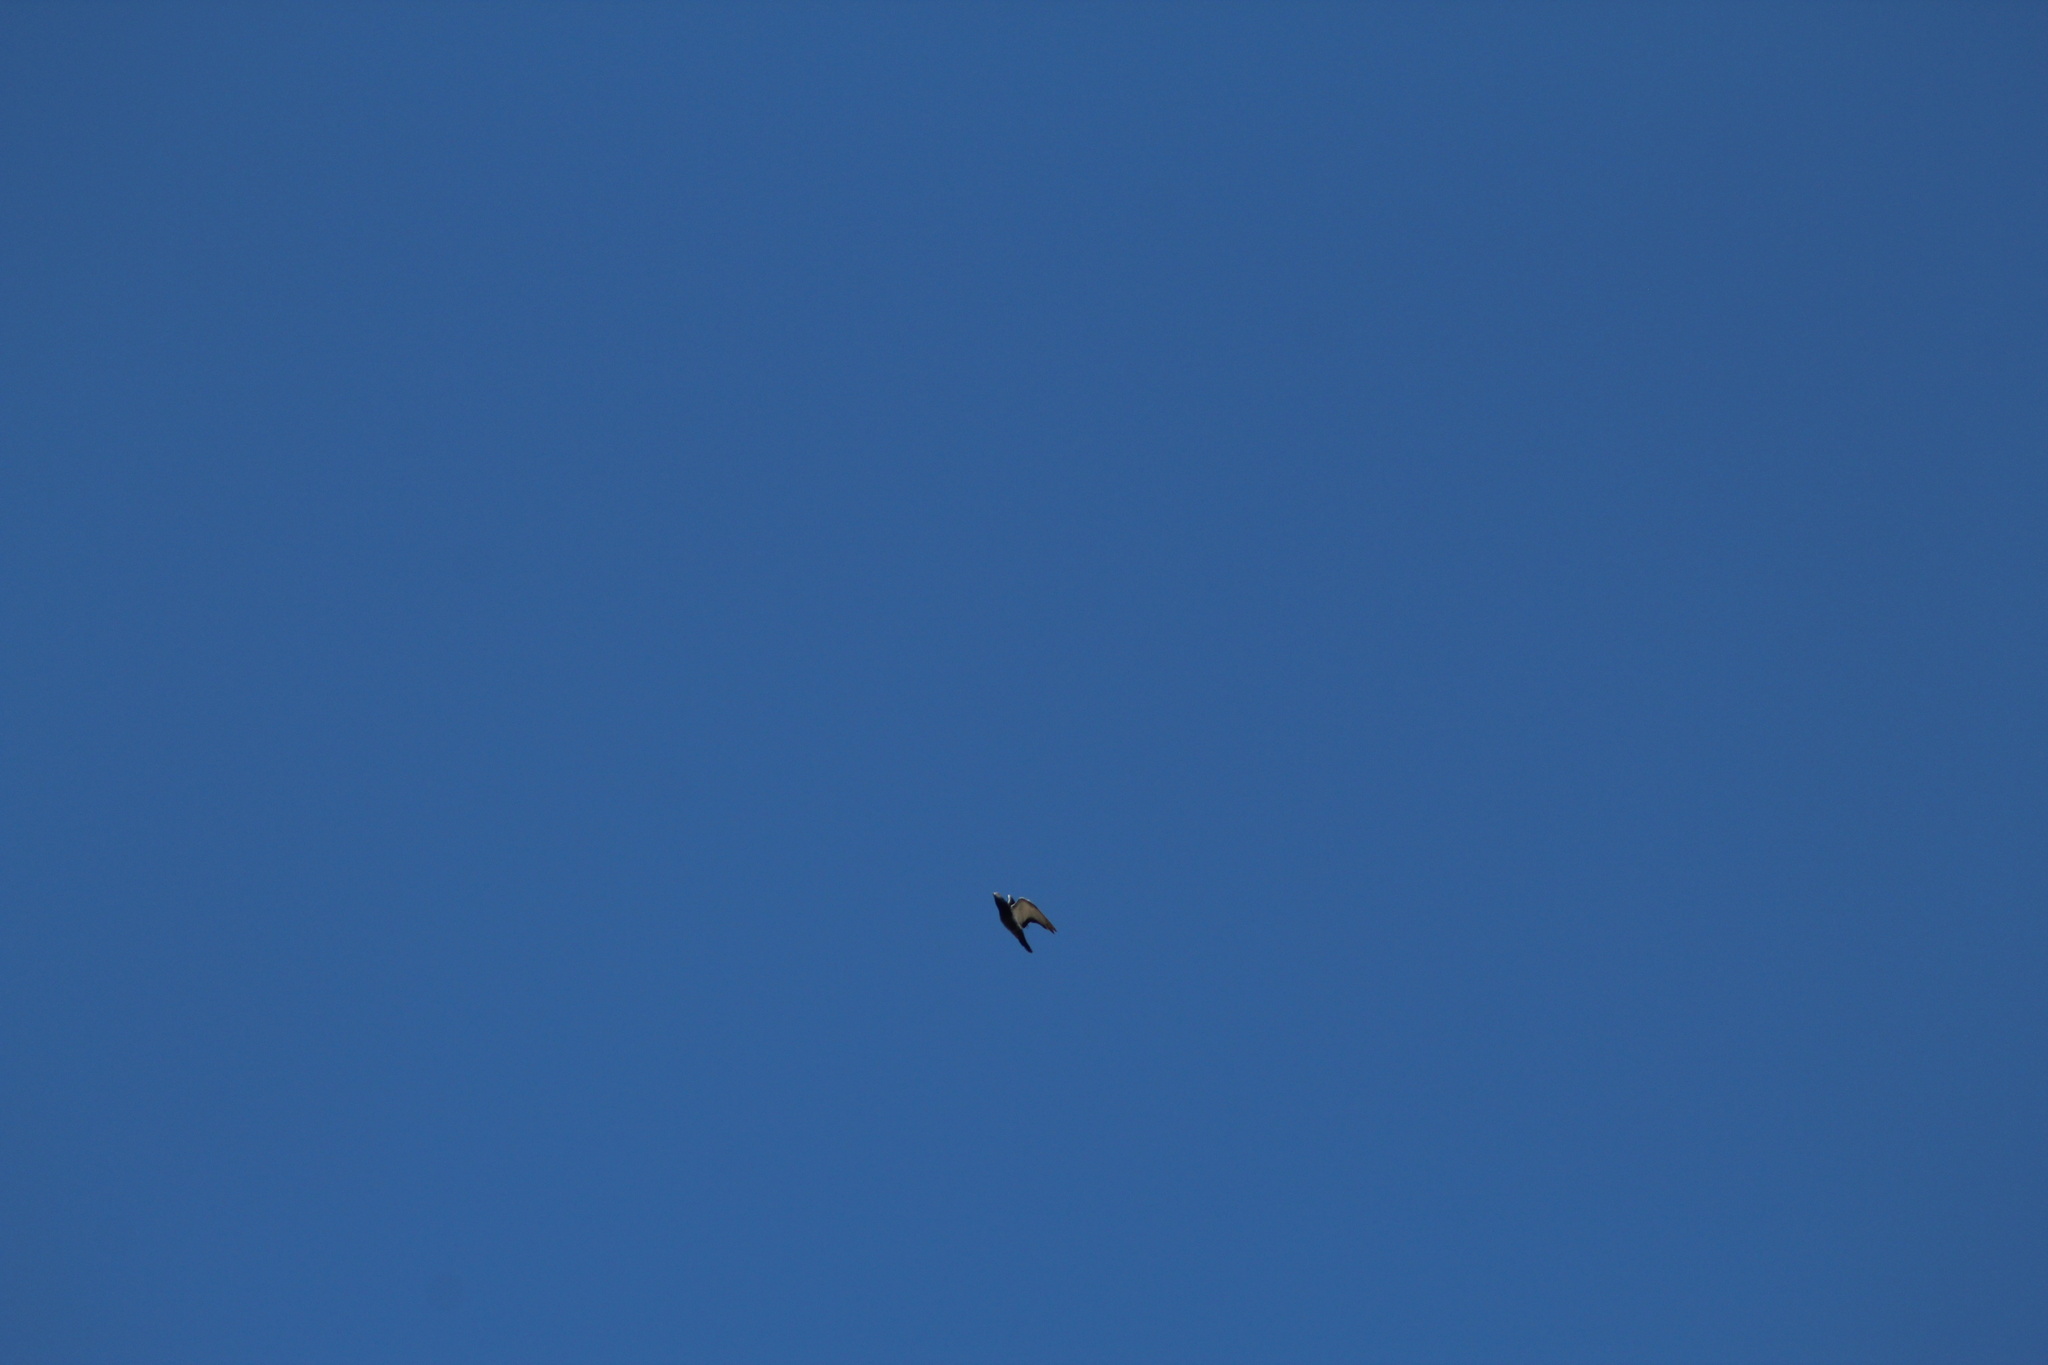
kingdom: Animalia
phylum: Chordata
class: Aves
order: Columbiformes
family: Columbidae
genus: Columba
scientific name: Columba livia
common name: Rock pigeon
